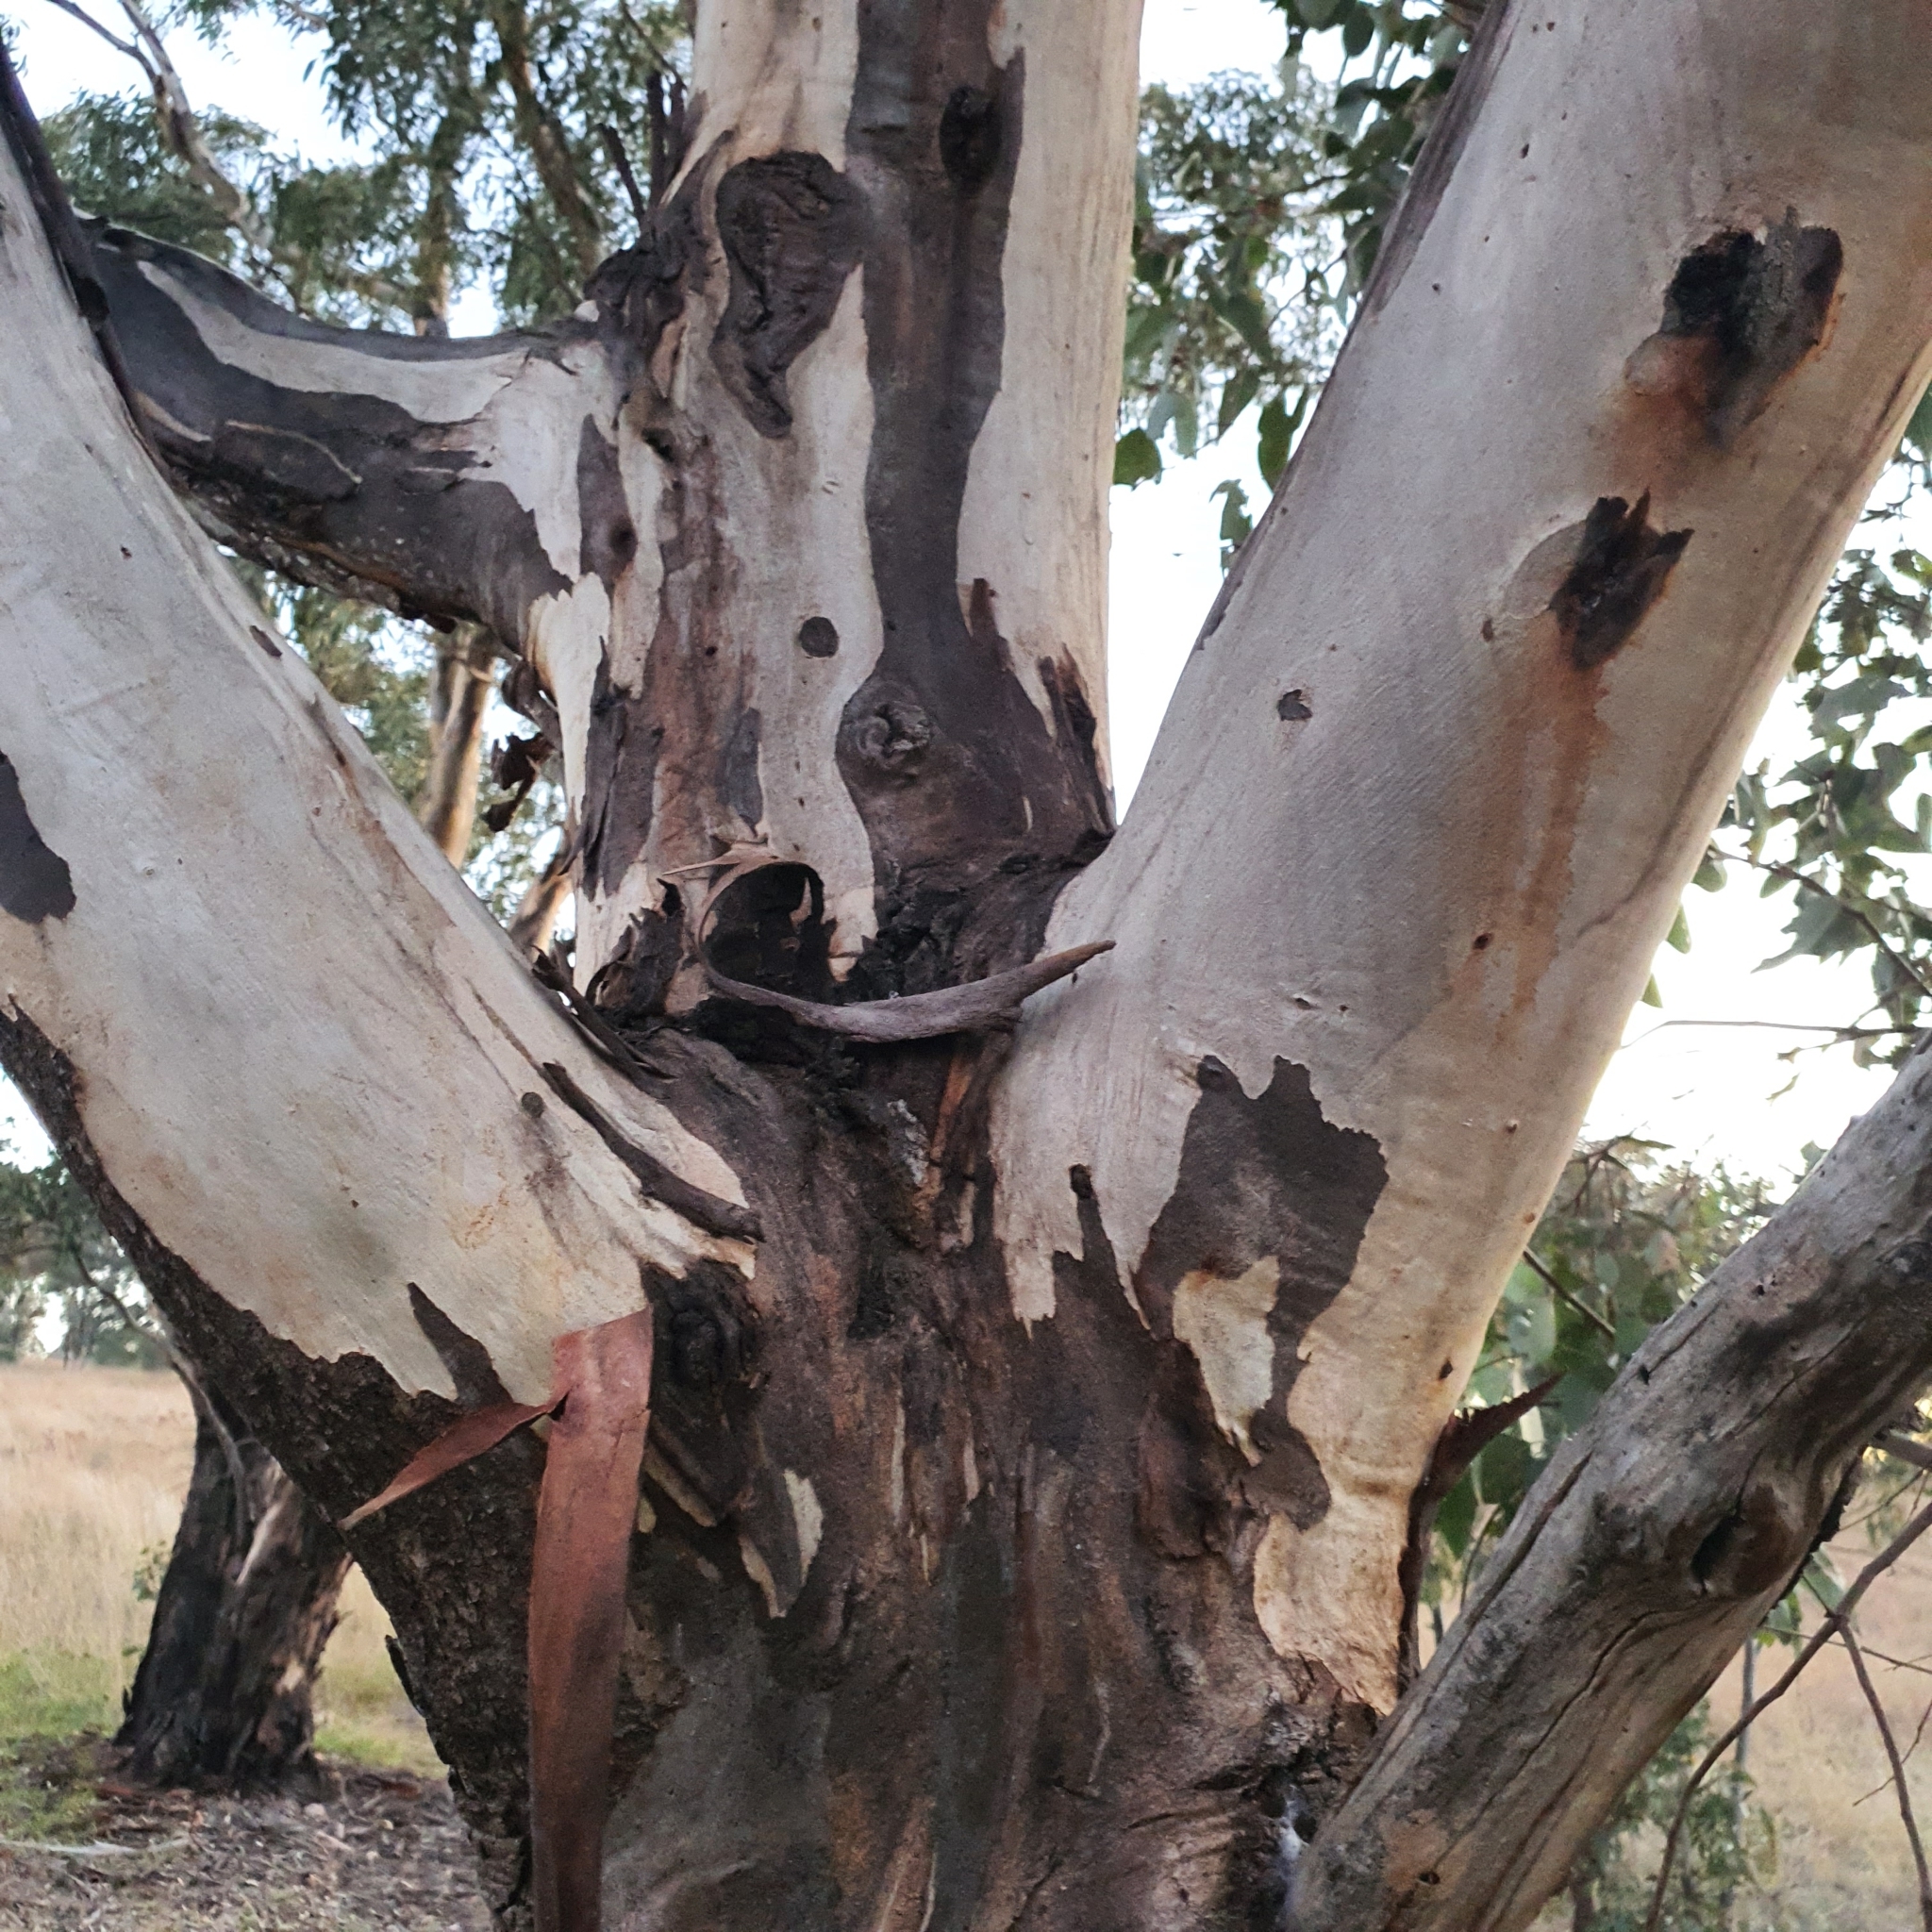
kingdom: Plantae
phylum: Tracheophyta
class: Magnoliopsida
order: Myrtales
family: Myrtaceae
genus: Eucalyptus
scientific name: Eucalyptus blakelyi
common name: Blakely's-red-gum
